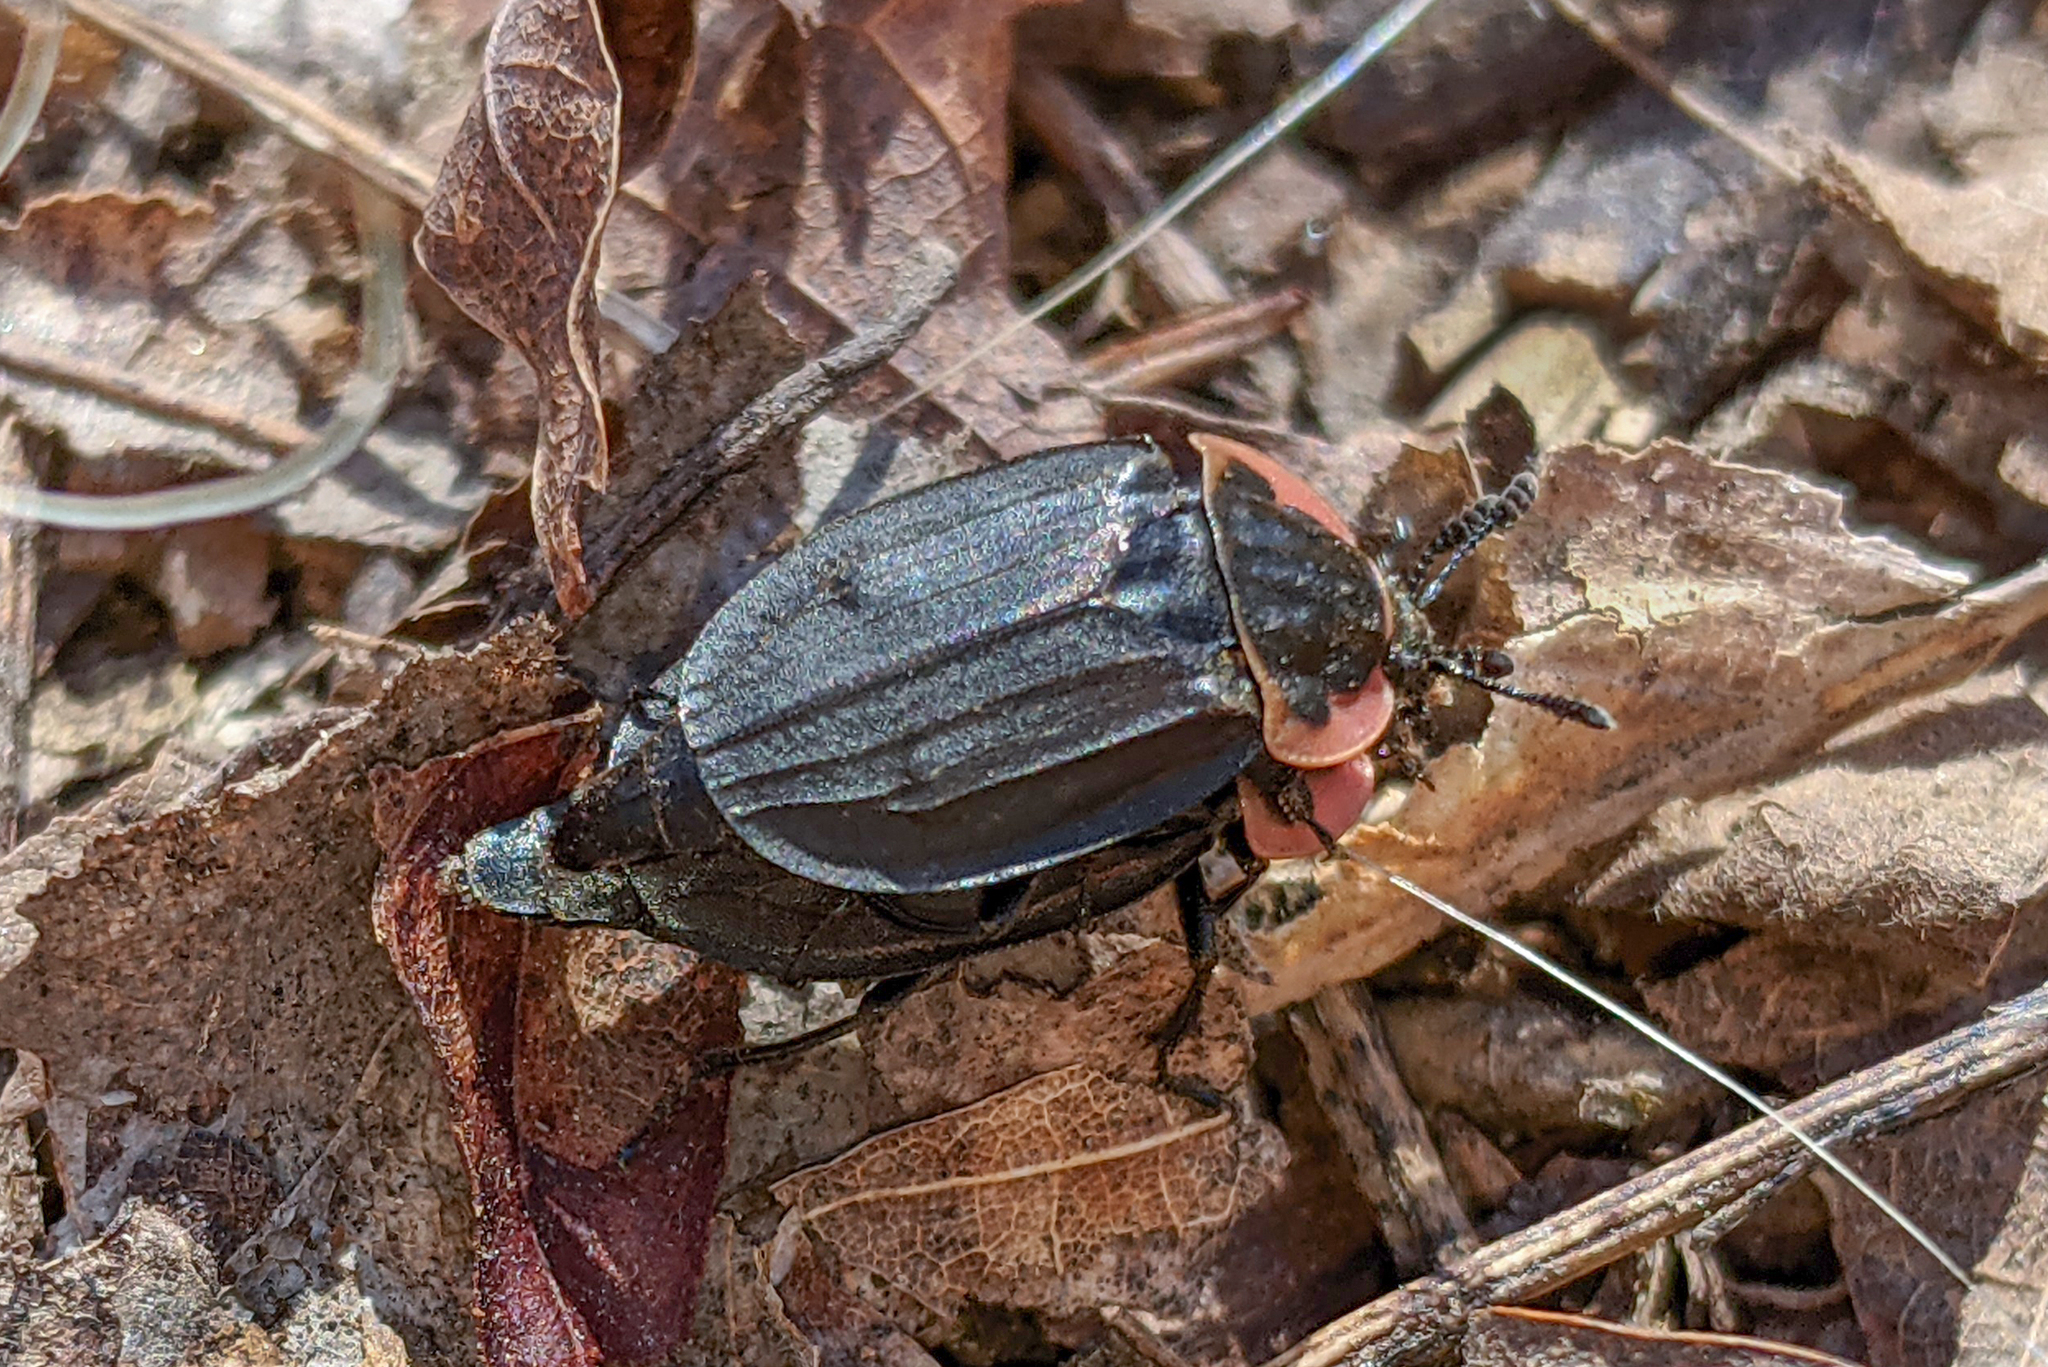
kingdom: Animalia
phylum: Arthropoda
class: Insecta
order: Coleoptera
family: Staphylinidae
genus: Oiceoptoma
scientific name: Oiceoptoma noveboracense
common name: Margined carrion beetle
